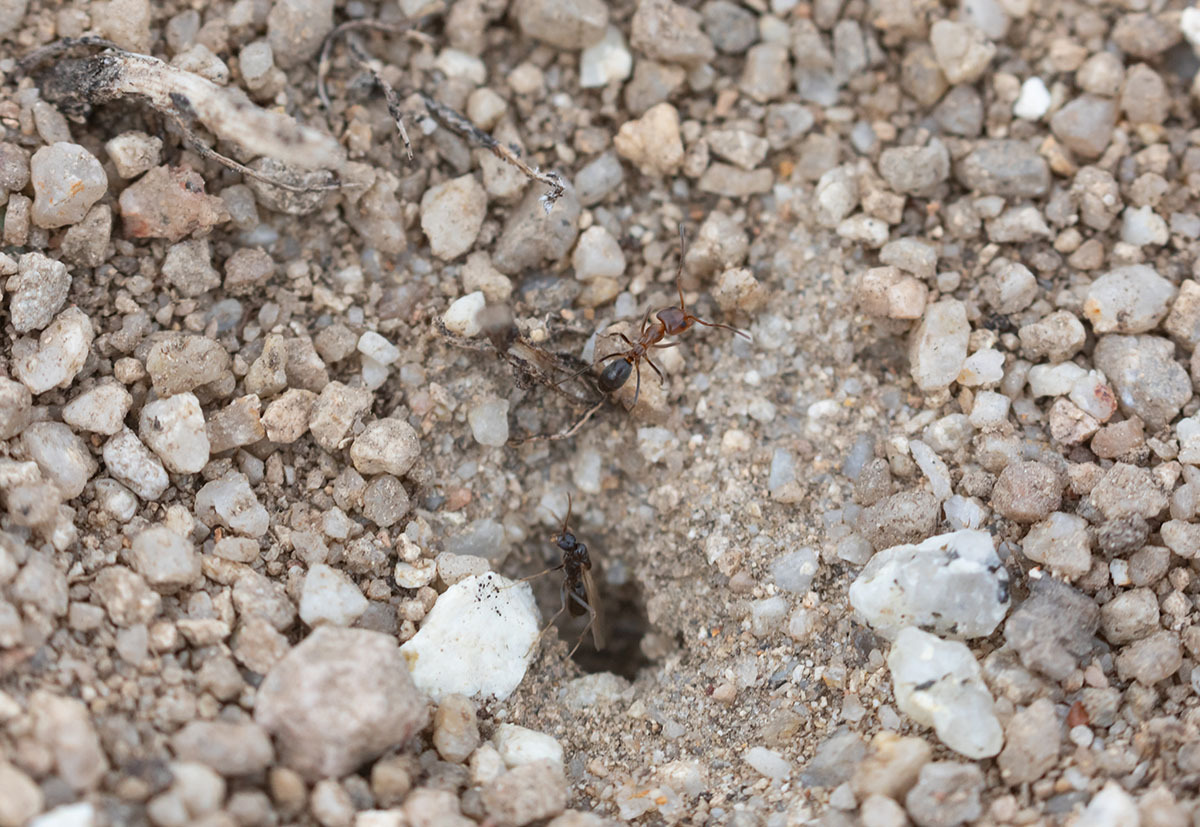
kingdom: Animalia
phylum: Arthropoda
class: Insecta
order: Hymenoptera
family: Formicidae
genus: Dorymyrmex
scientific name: Dorymyrmex bicolor
